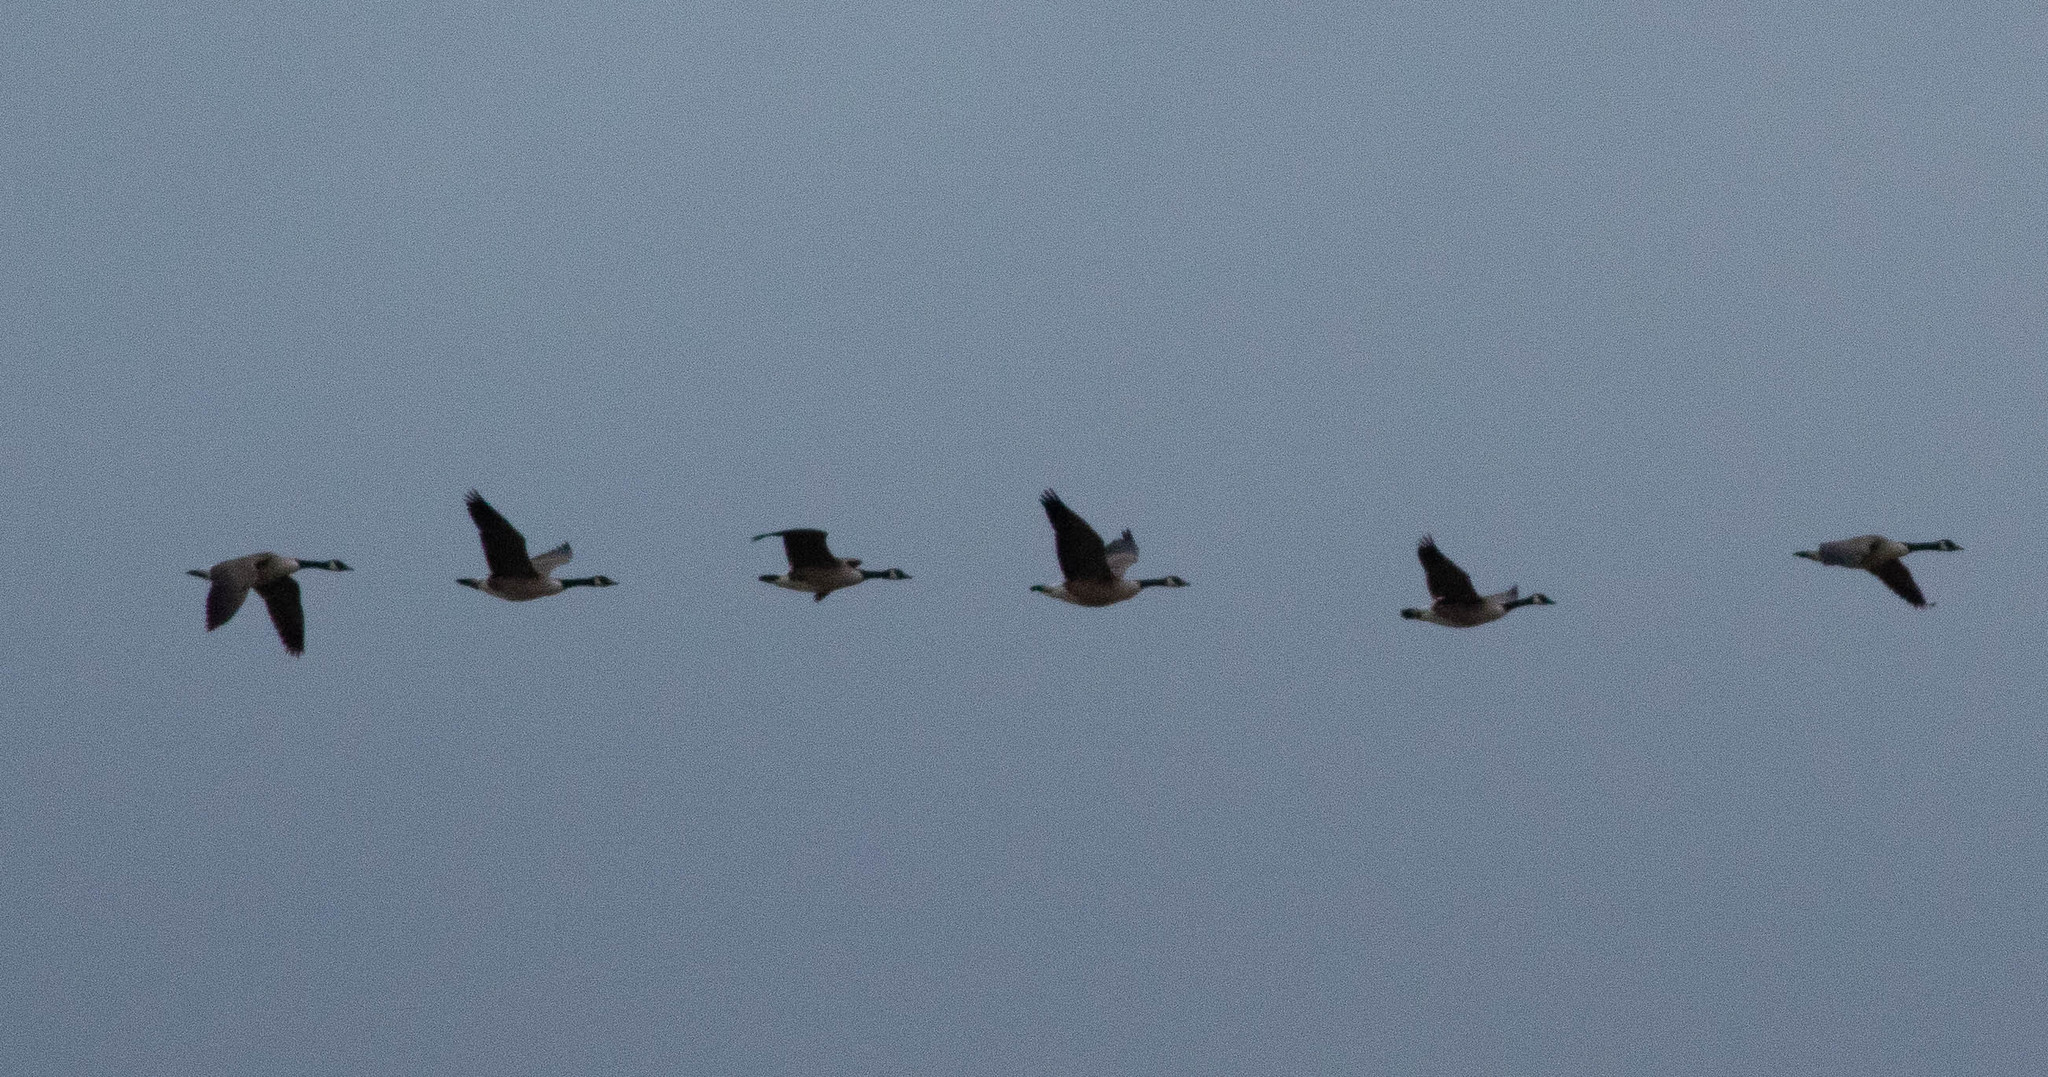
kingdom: Animalia
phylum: Chordata
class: Aves
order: Anseriformes
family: Anatidae
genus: Branta
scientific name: Branta canadensis
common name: Canada goose
